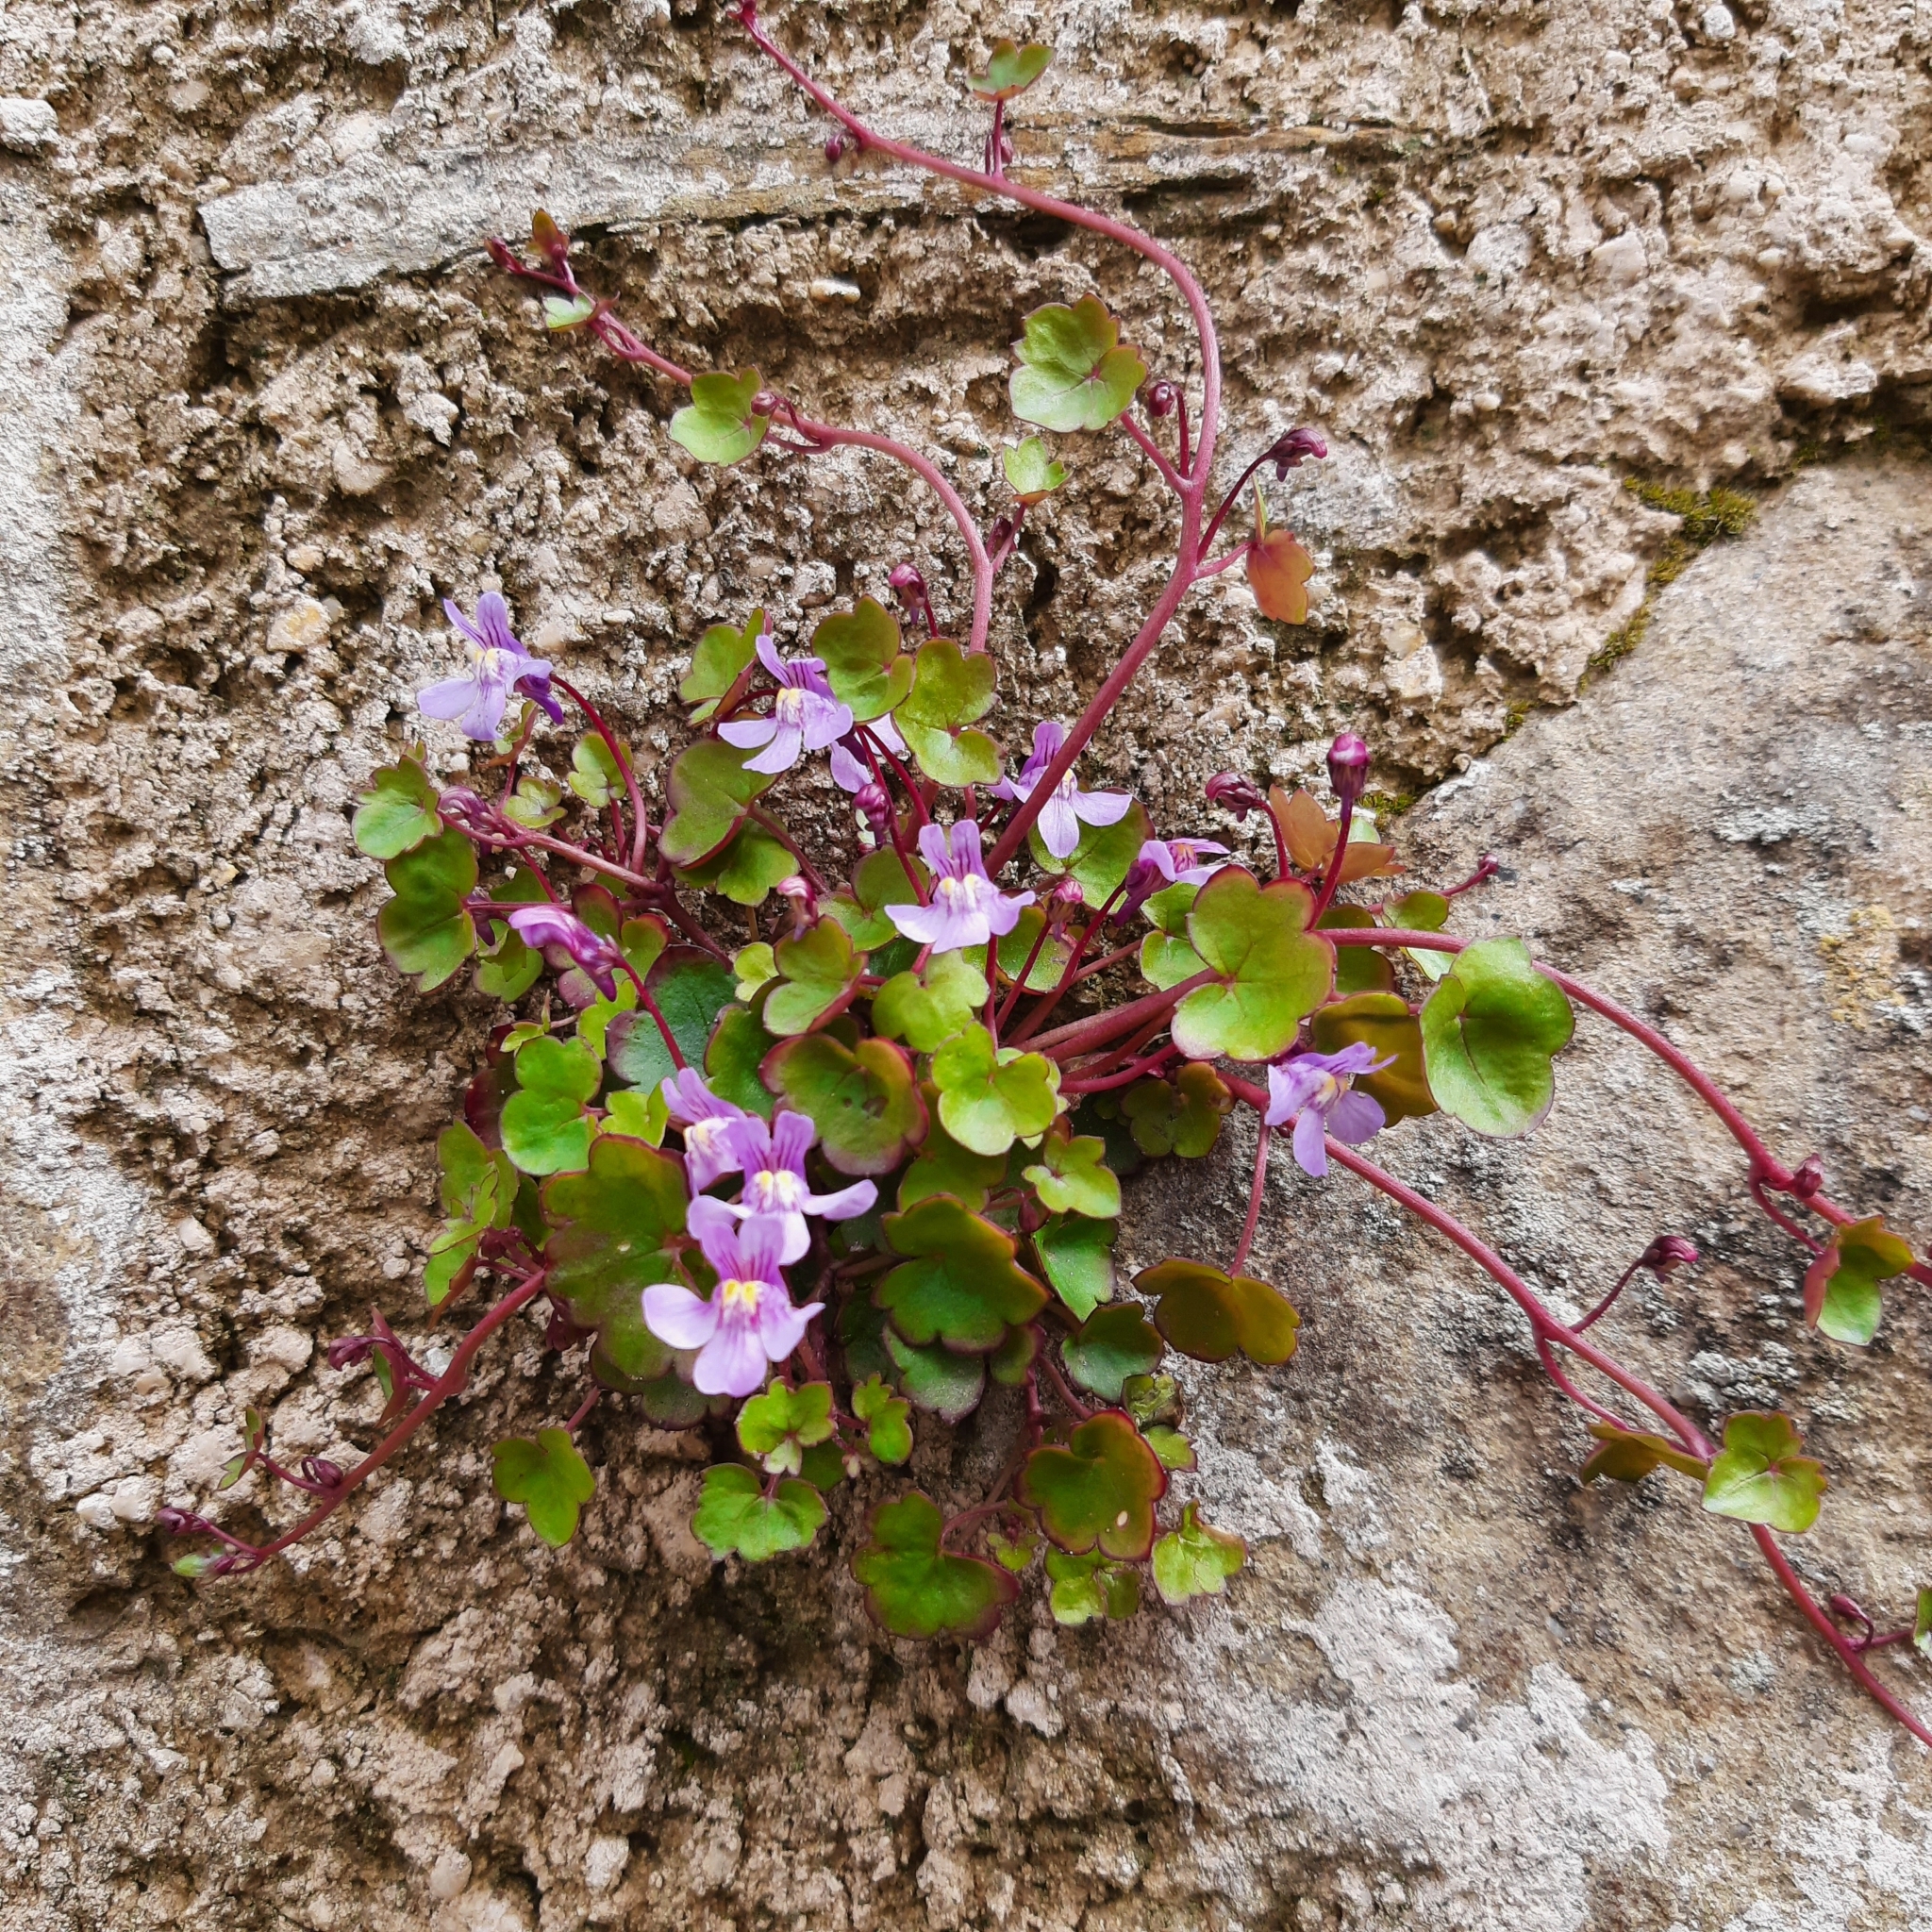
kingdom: Plantae
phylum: Tracheophyta
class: Magnoliopsida
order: Lamiales
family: Plantaginaceae
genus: Cymbalaria
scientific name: Cymbalaria muralis
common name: Ivy-leaved toadflax
